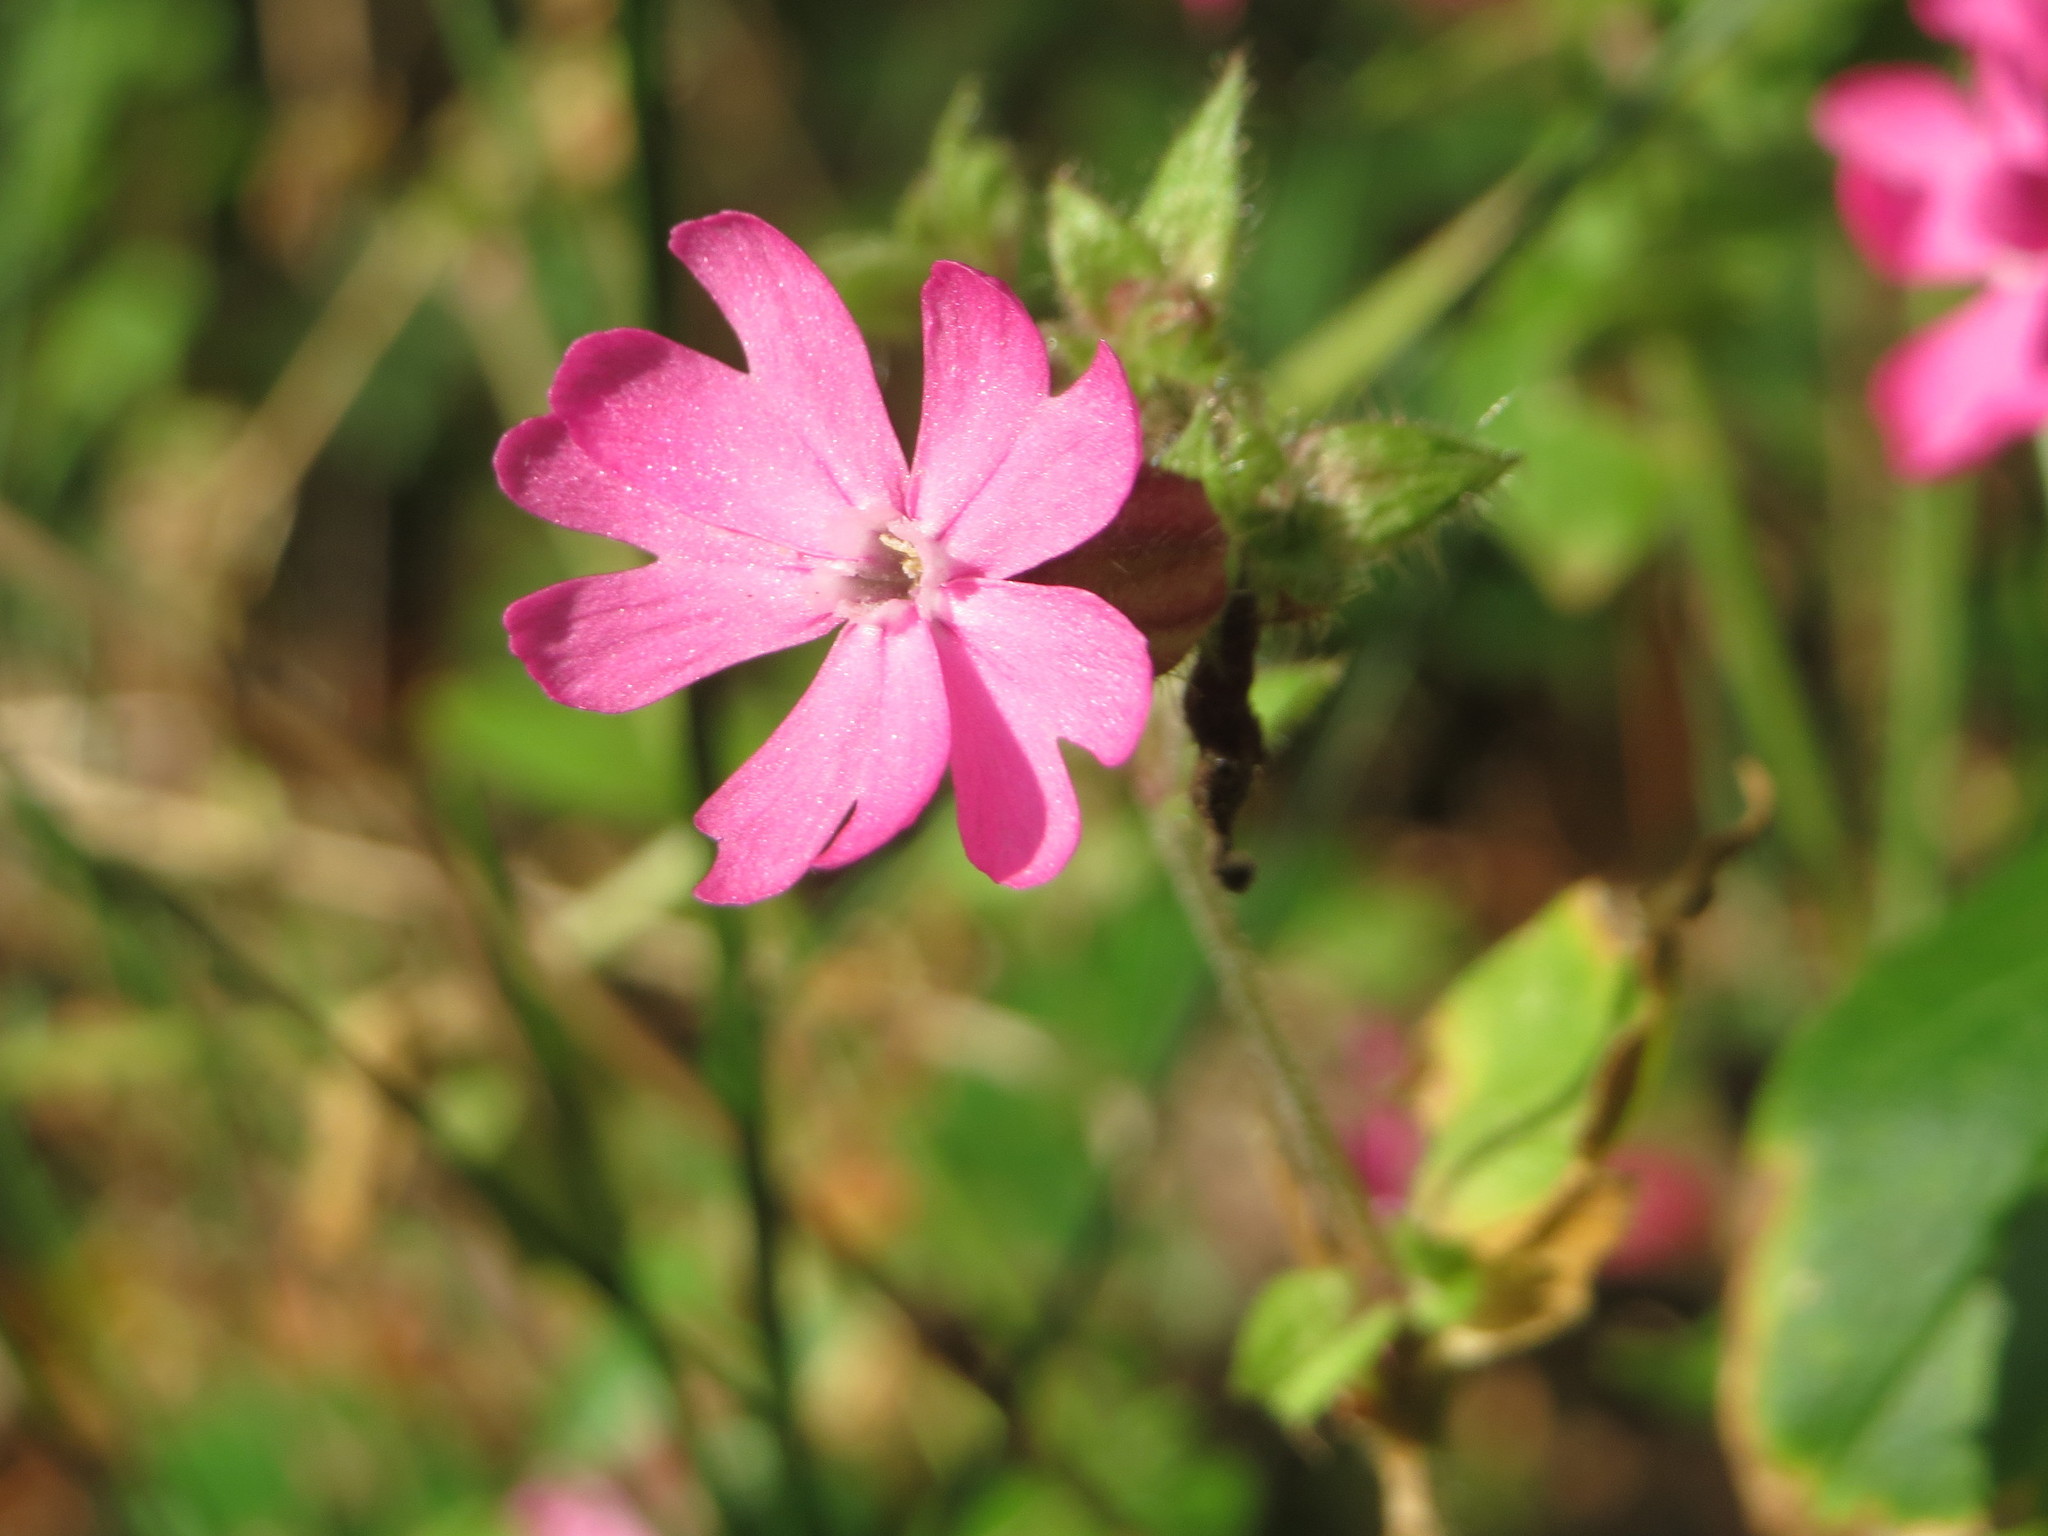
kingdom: Plantae
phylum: Tracheophyta
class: Magnoliopsida
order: Caryophyllales
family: Caryophyllaceae
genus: Silene
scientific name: Silene dioica
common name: Red campion
